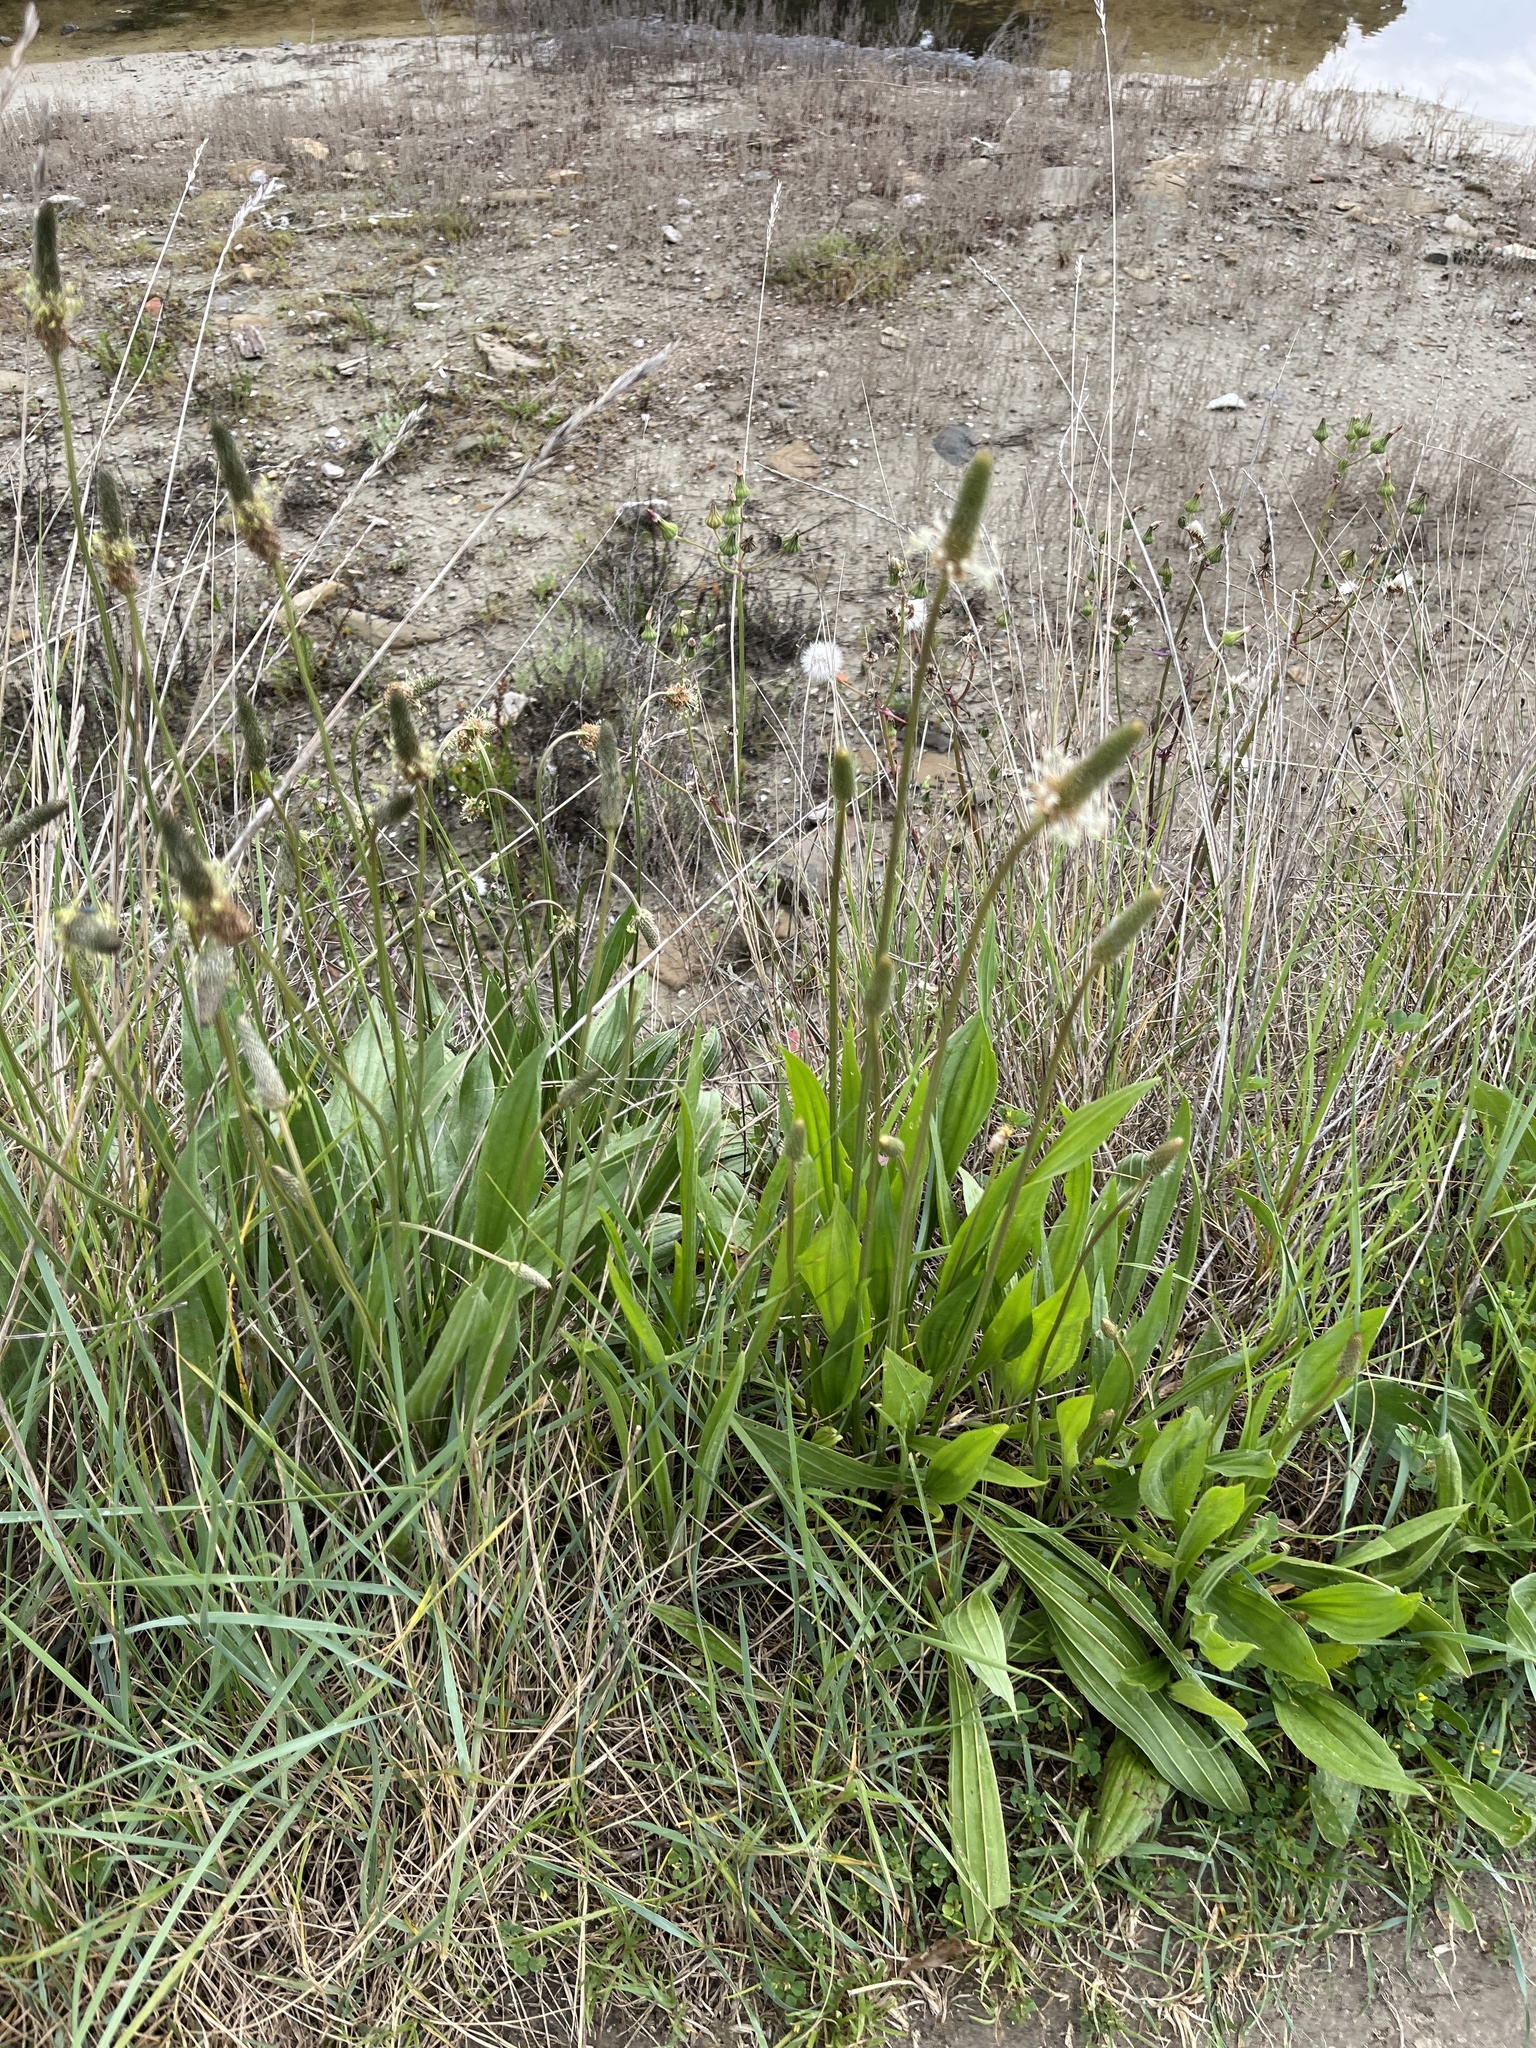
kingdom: Plantae
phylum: Tracheophyta
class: Magnoliopsida
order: Lamiales
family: Plantaginaceae
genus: Plantago
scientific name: Plantago lanceolata
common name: Ribwort plantain
